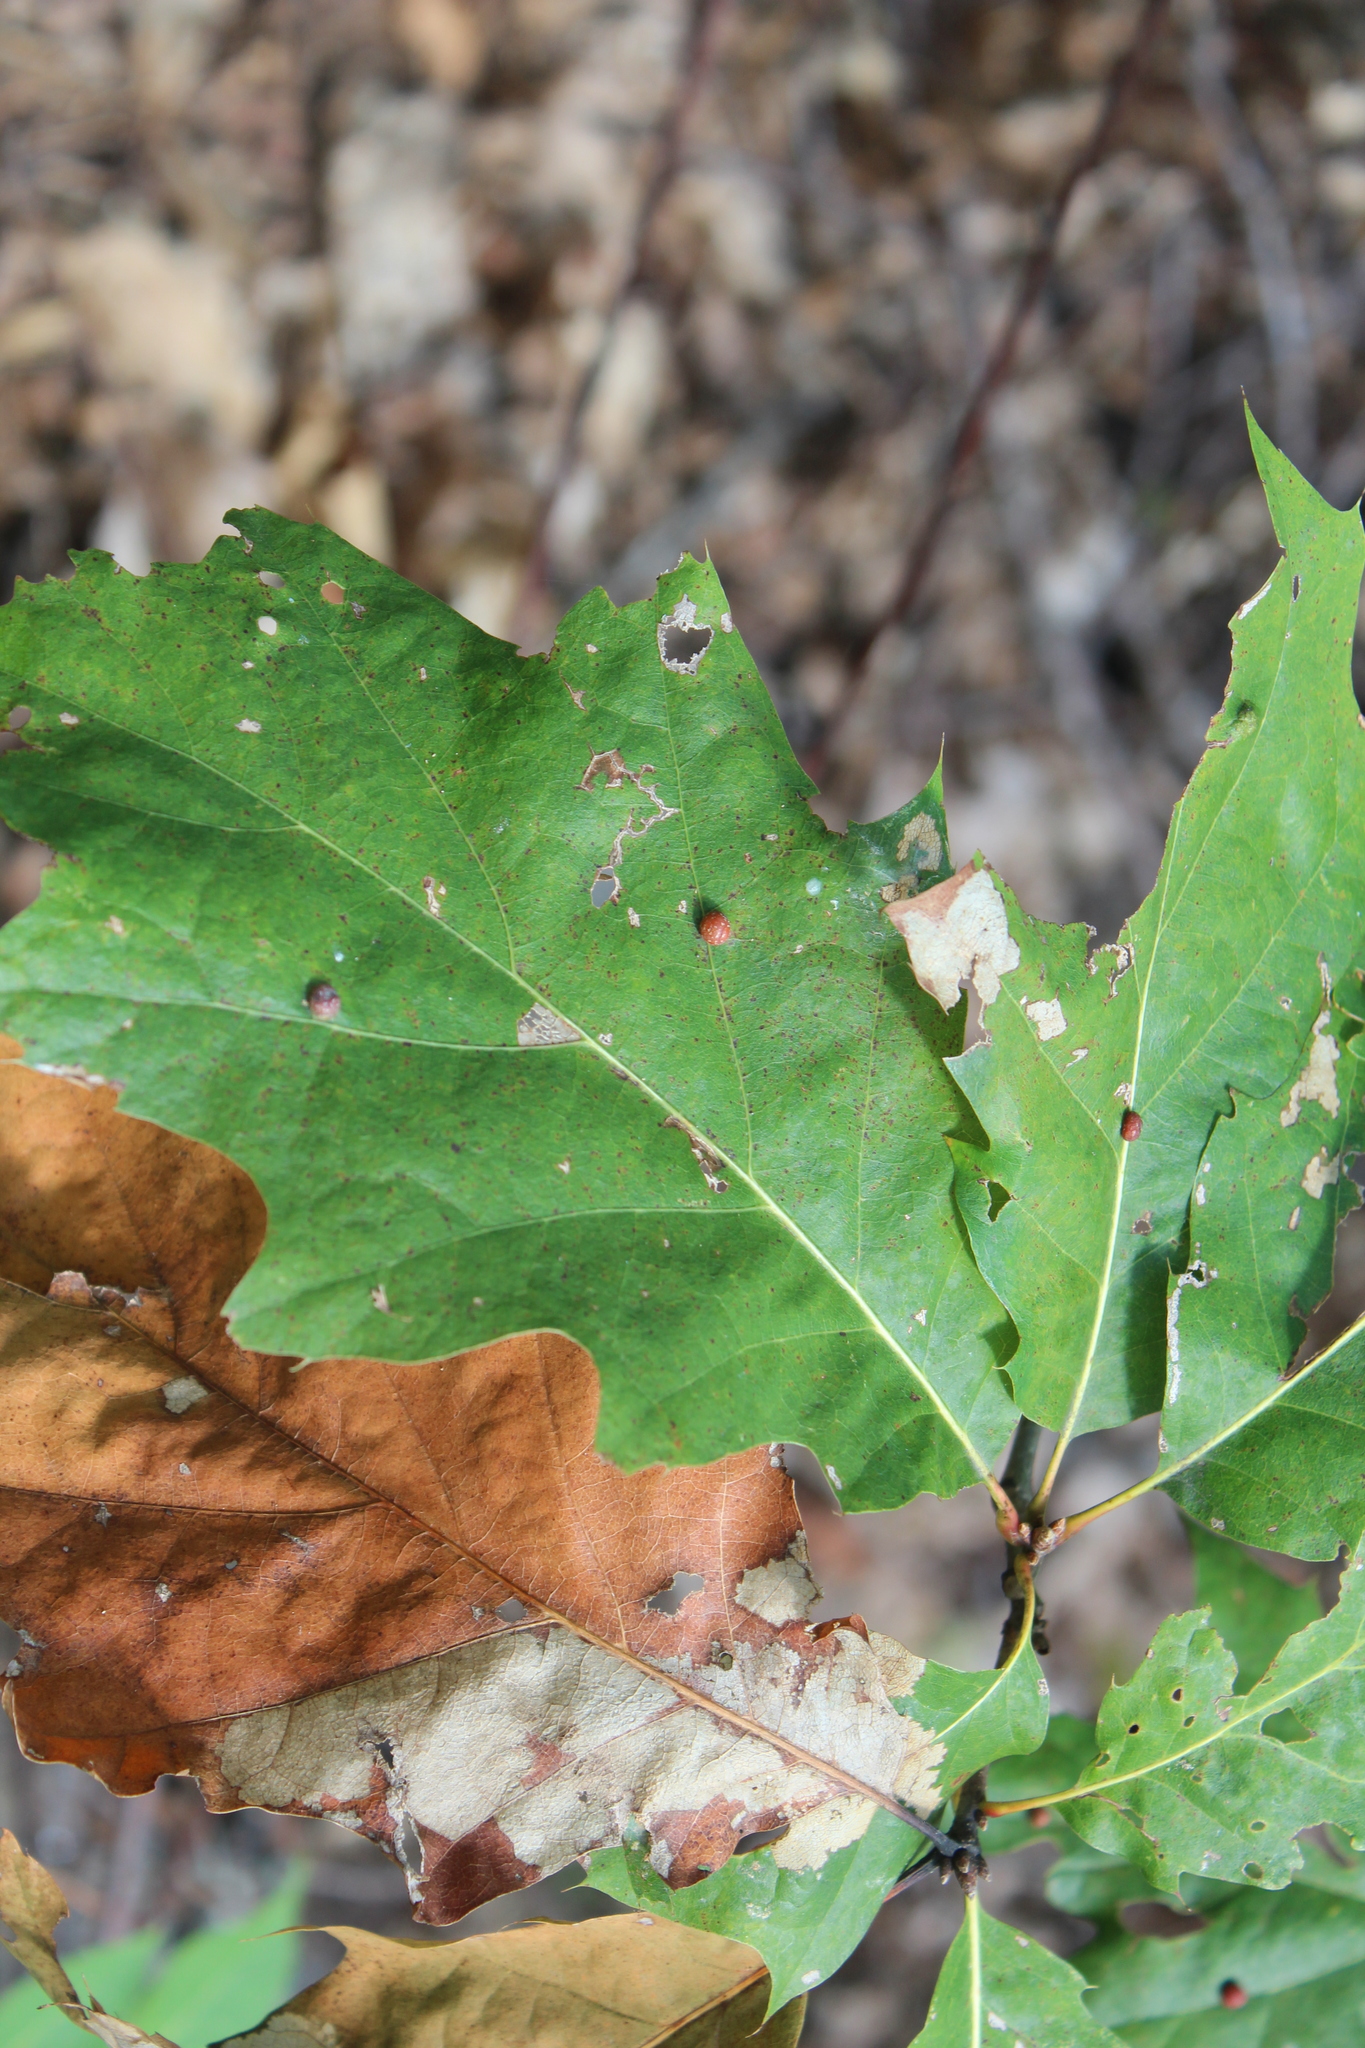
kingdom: Animalia
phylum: Arthropoda
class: Insecta
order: Diptera
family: Cecidomyiidae
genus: Polystepha
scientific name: Polystepha pilulae
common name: Oak leaf gall midge
